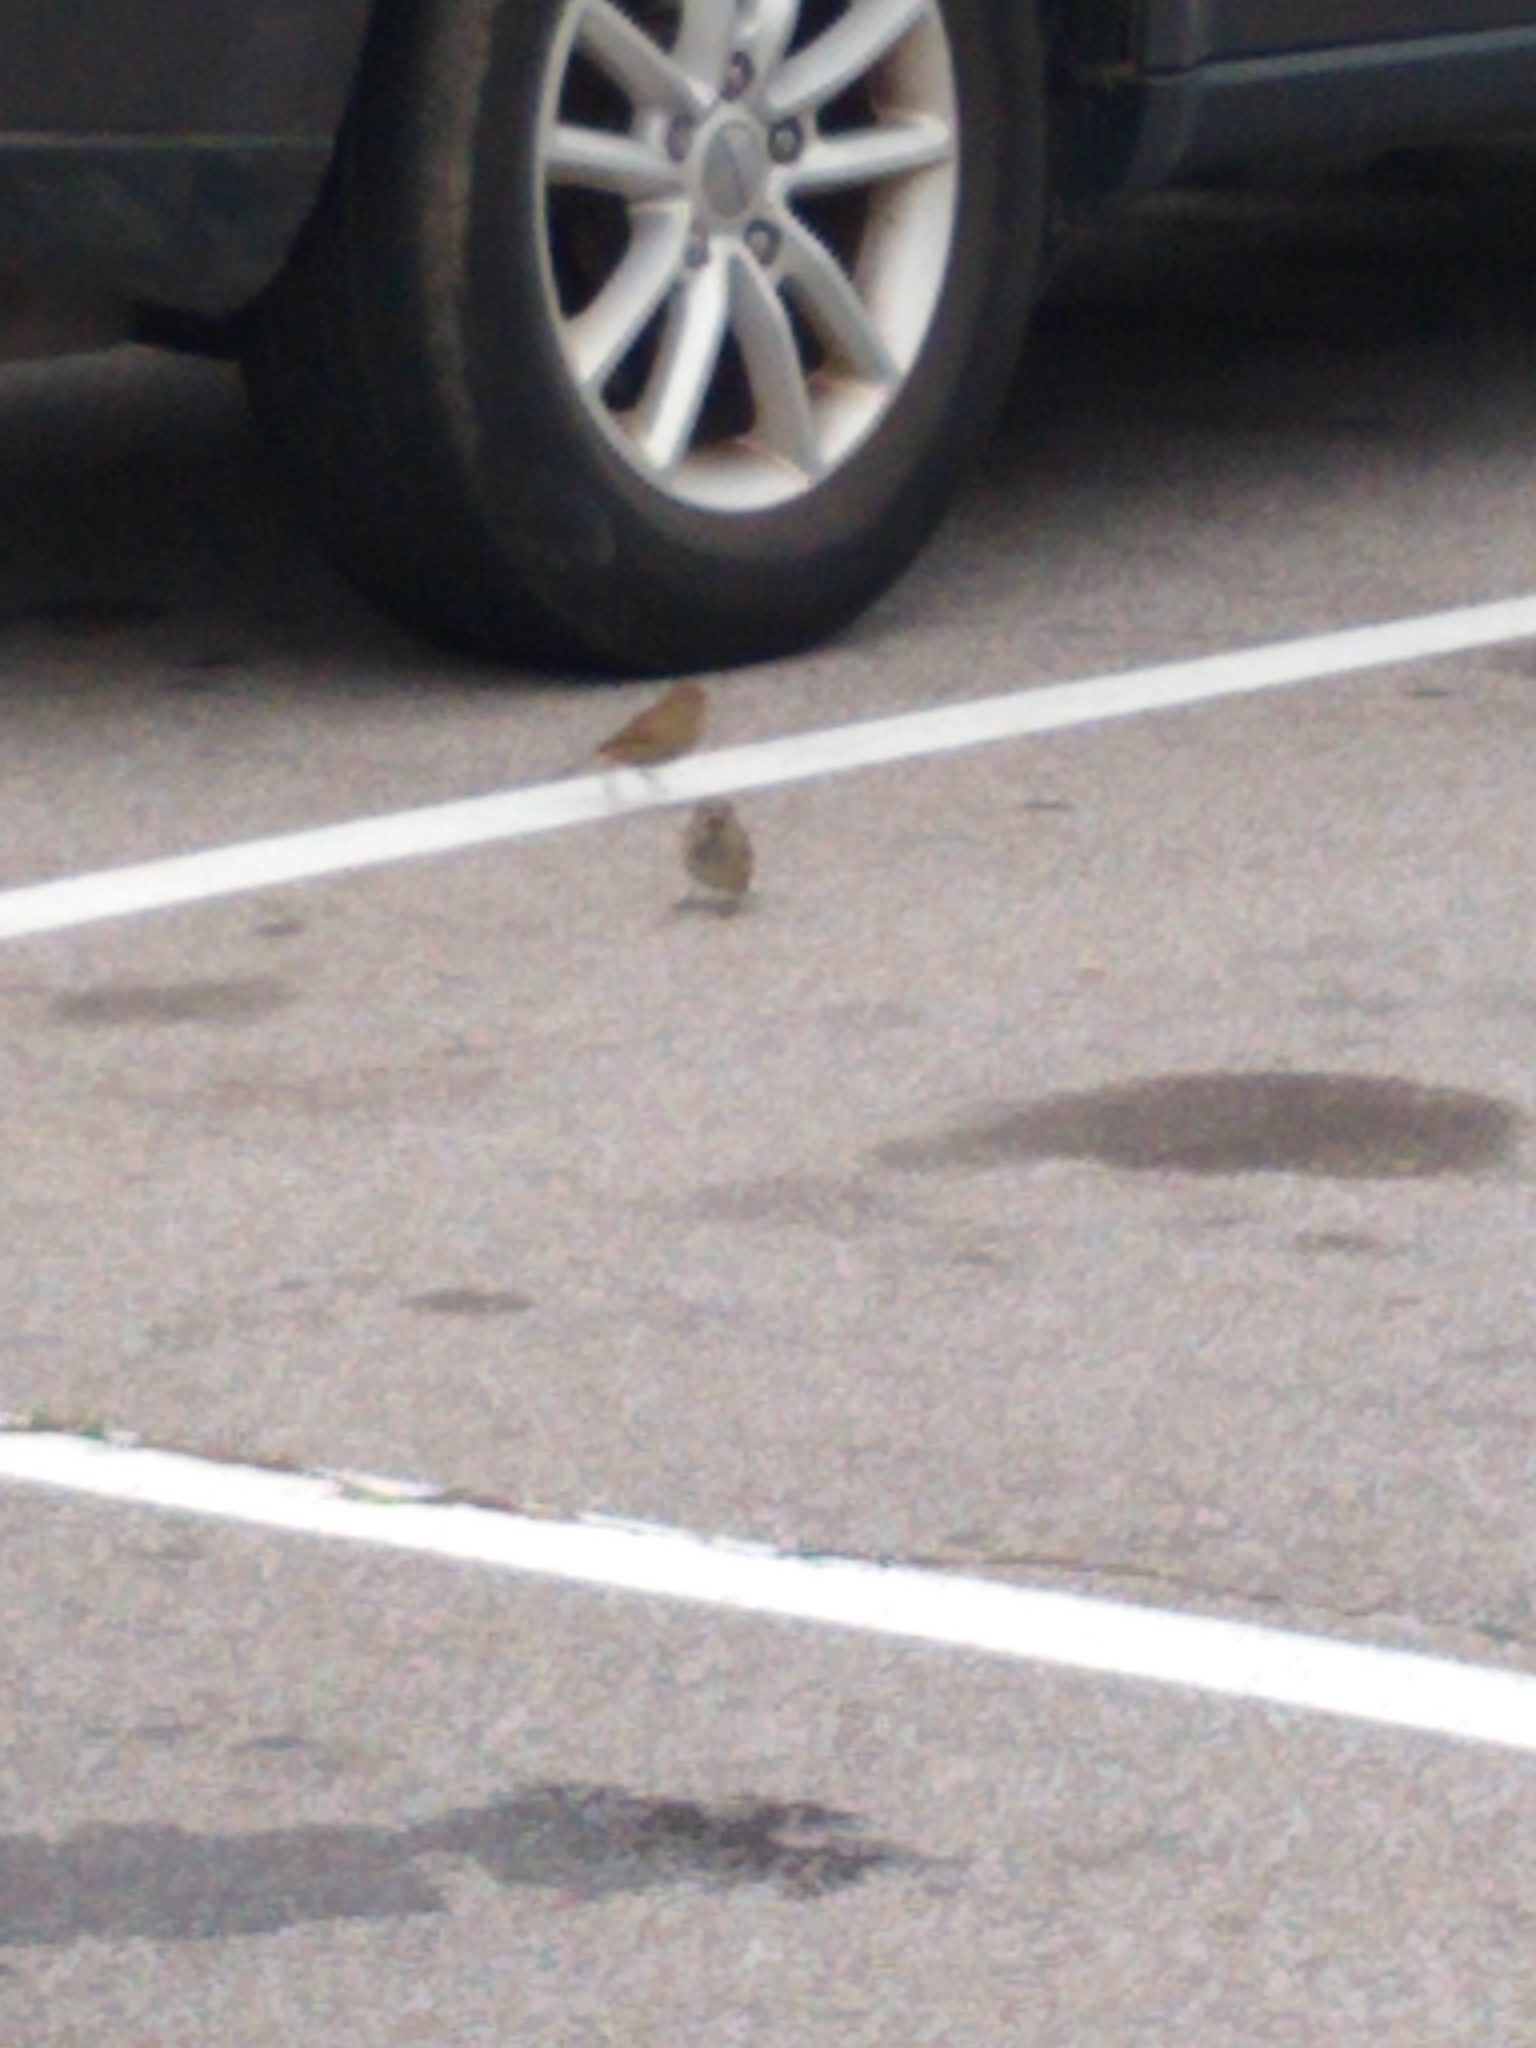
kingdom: Animalia
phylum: Chordata
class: Aves
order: Passeriformes
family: Passeridae
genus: Passer
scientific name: Passer domesticus
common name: House sparrow
